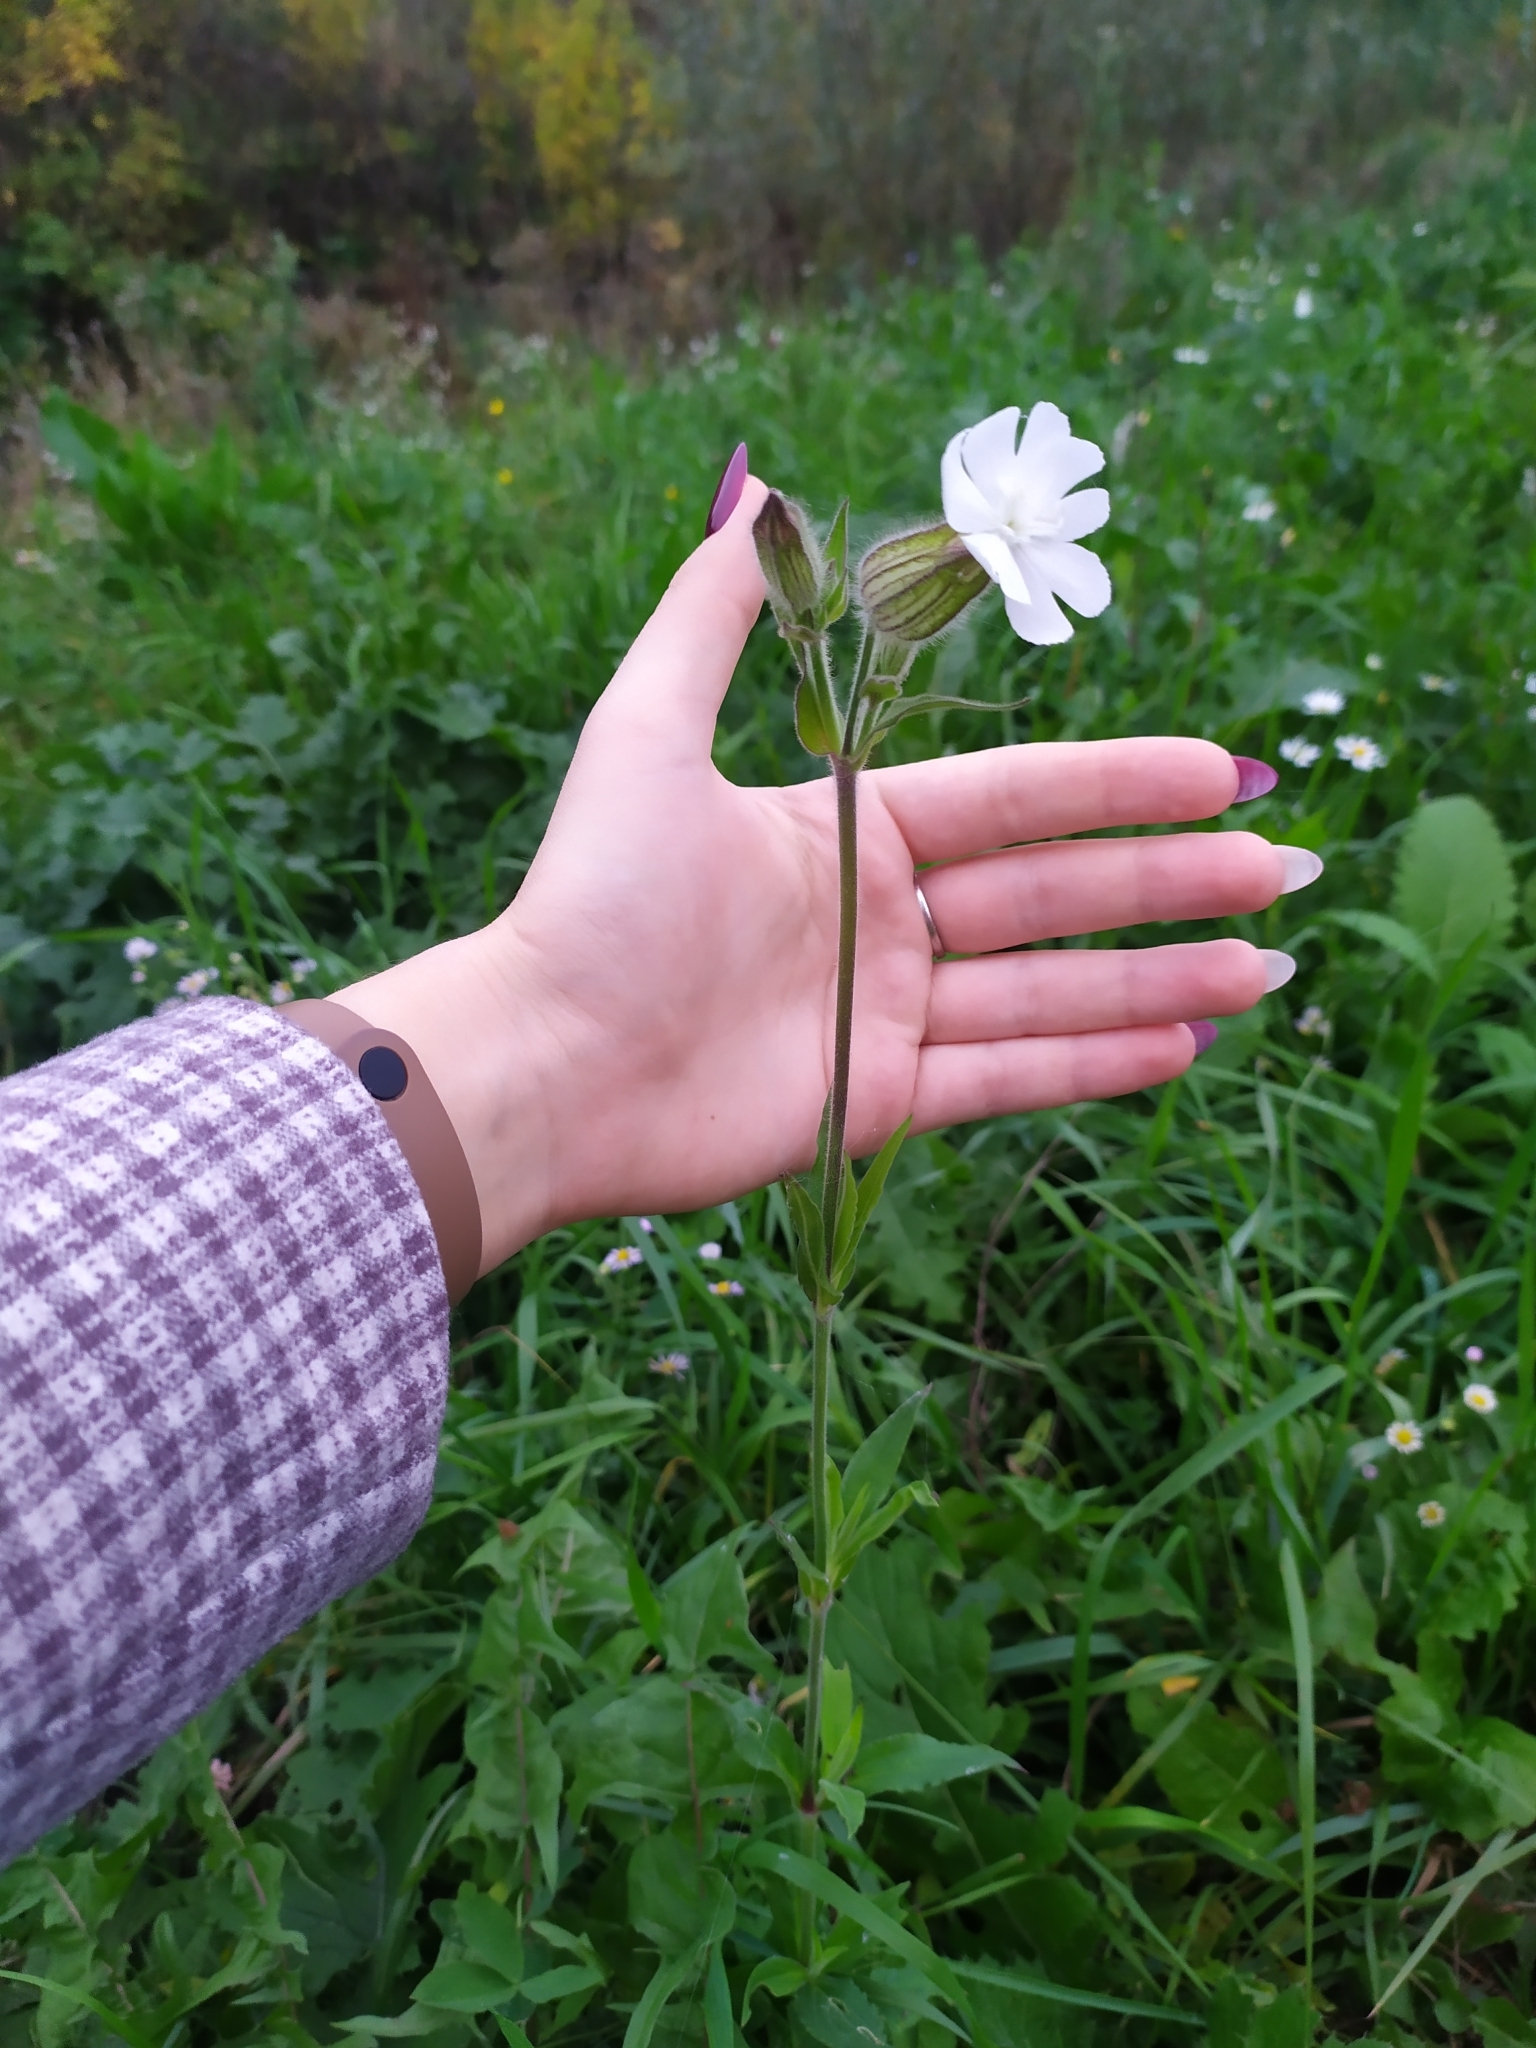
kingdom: Plantae
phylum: Tracheophyta
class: Magnoliopsida
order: Caryophyllales
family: Caryophyllaceae
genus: Silene
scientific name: Silene latifolia
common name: White campion
